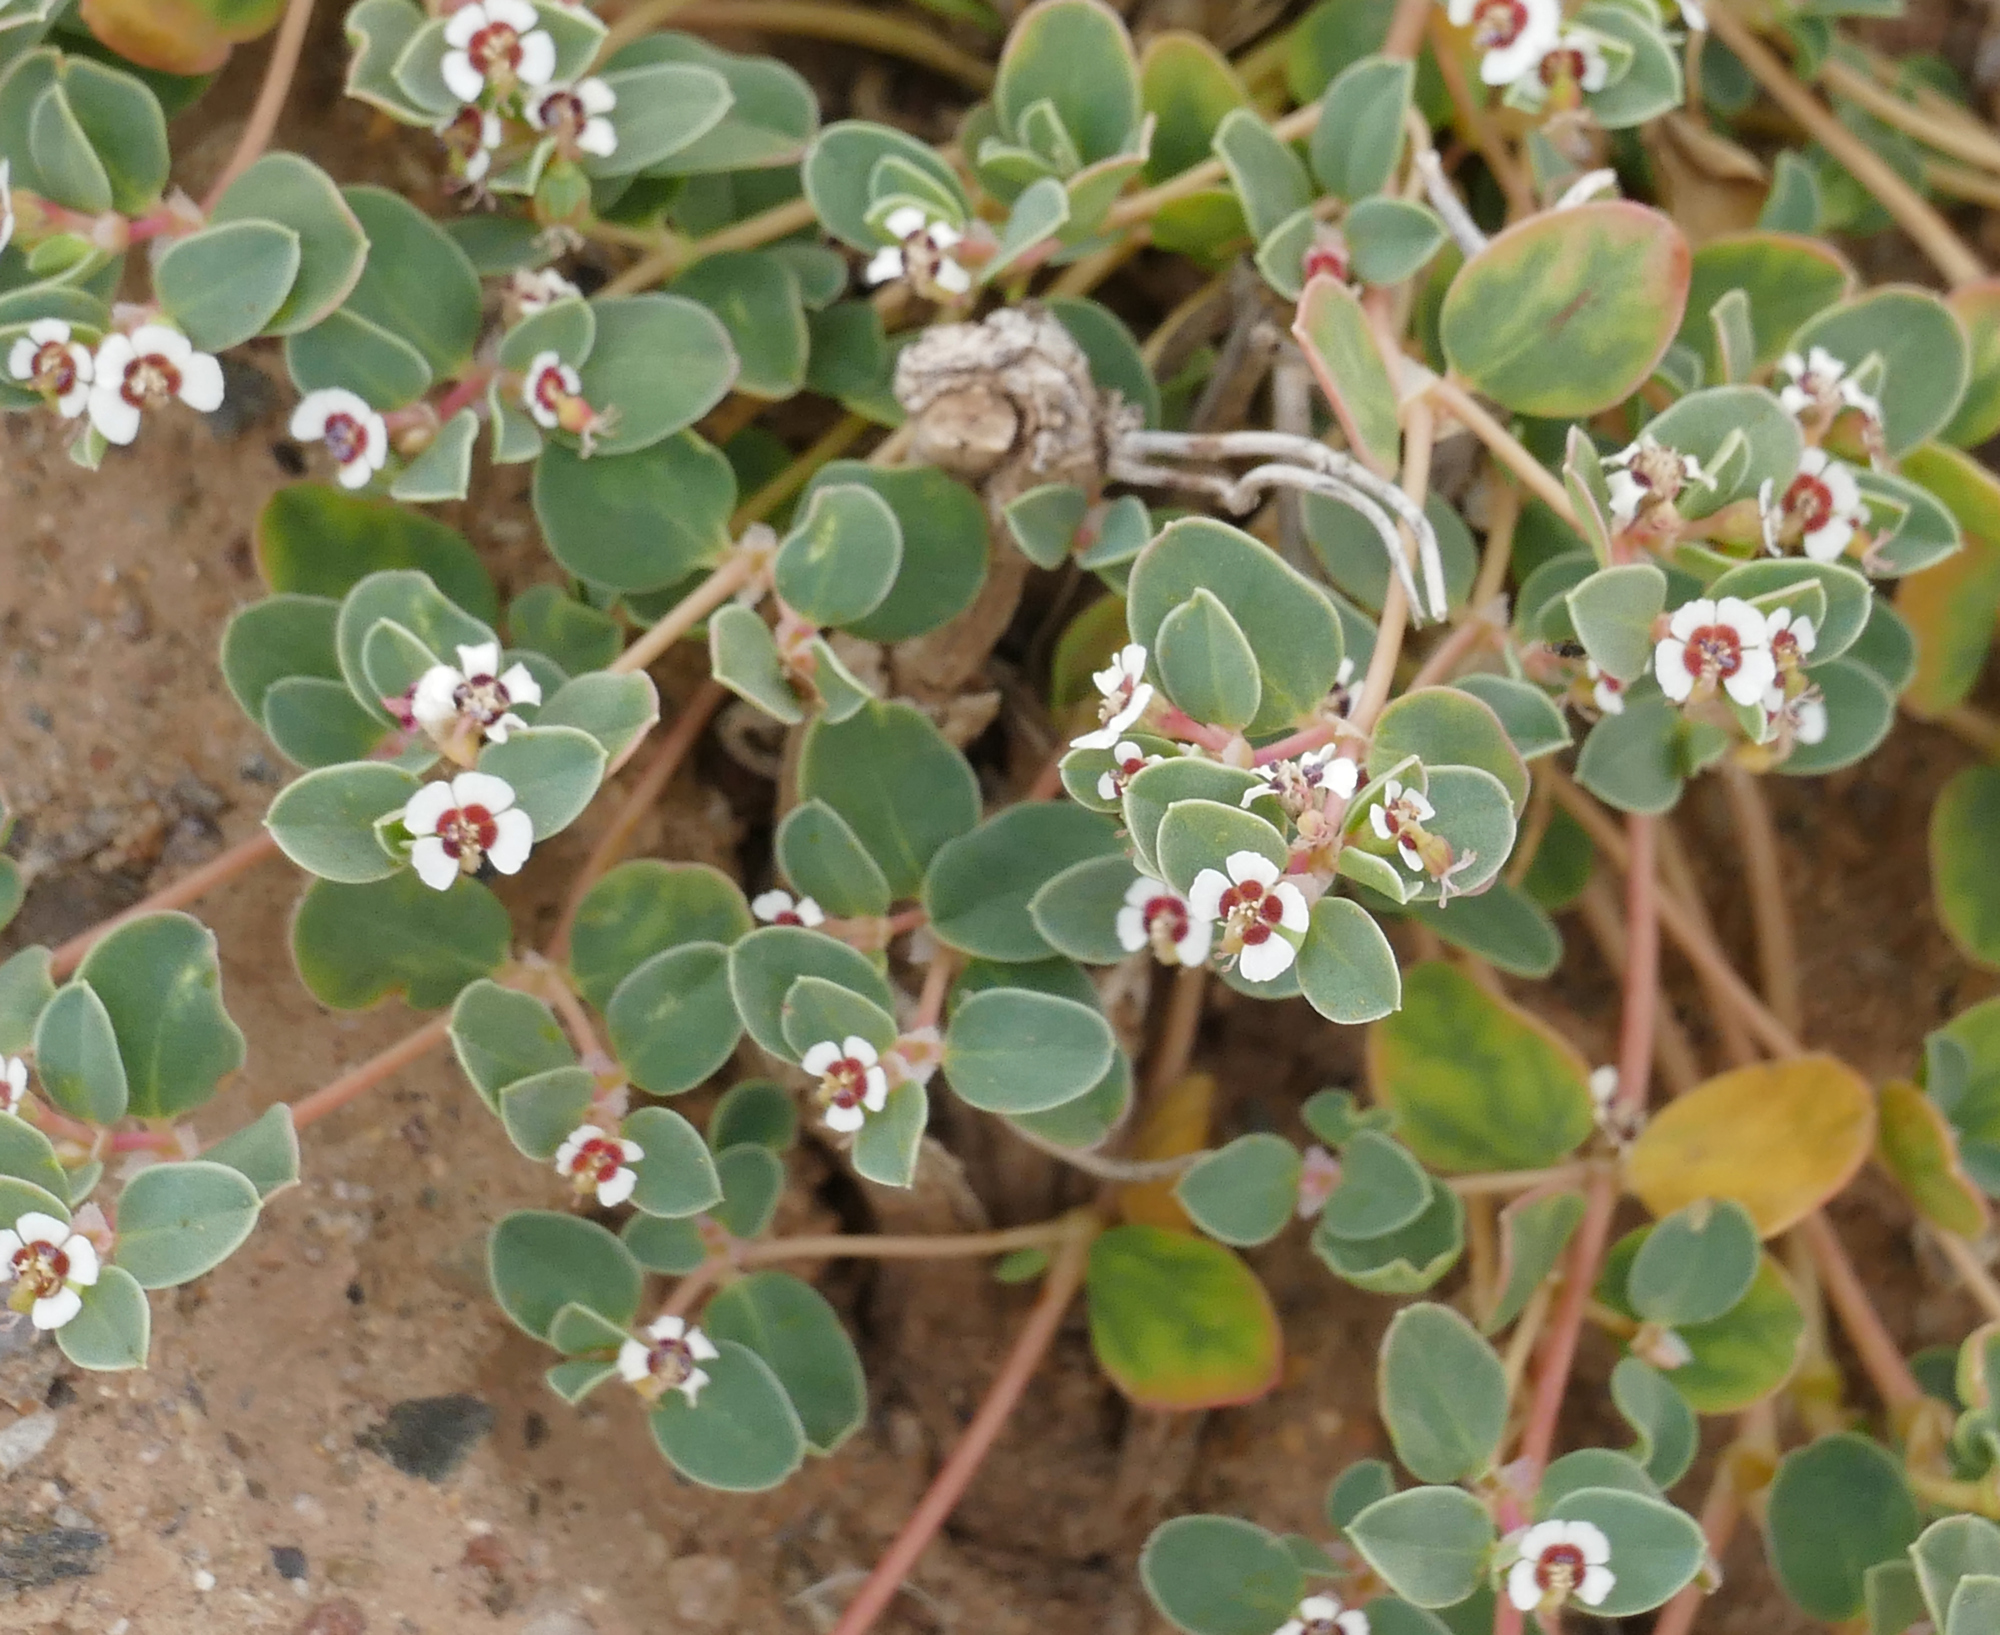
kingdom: Plantae
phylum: Tracheophyta
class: Magnoliopsida
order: Malpighiales
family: Euphorbiaceae
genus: Euphorbia
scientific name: Euphorbia albomarginata
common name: Whitemargin sandmat
